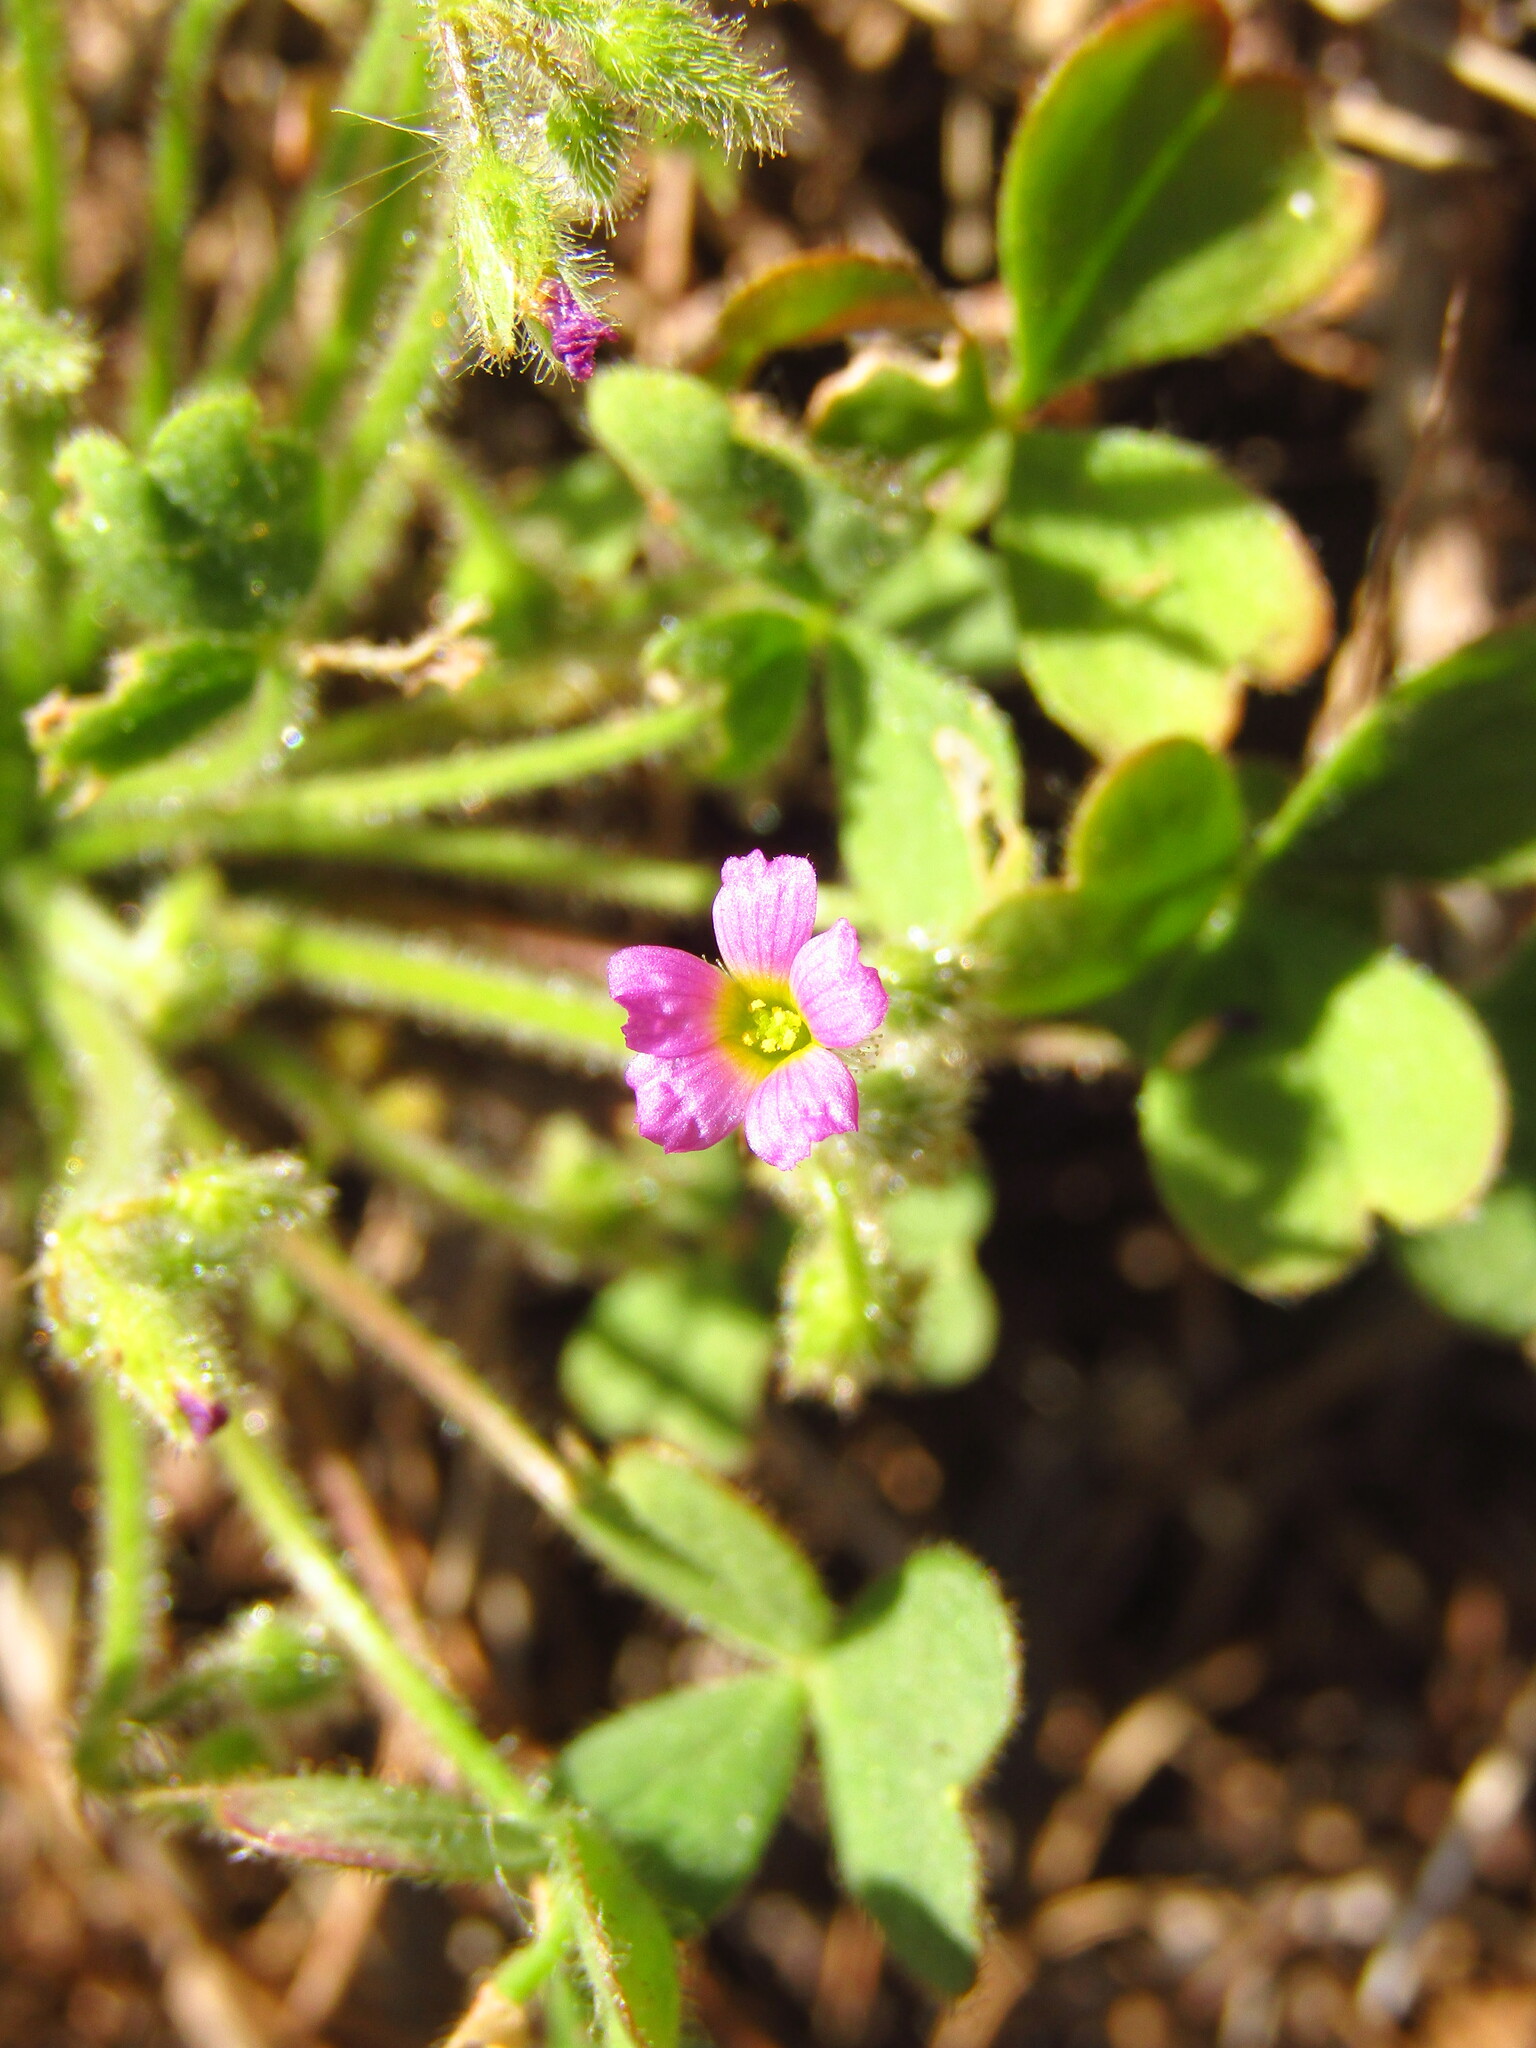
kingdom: Plantae
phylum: Tracheophyta
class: Magnoliopsida
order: Oxalidales
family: Oxalidaceae
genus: Oxalis
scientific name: Oxalis clandestina
